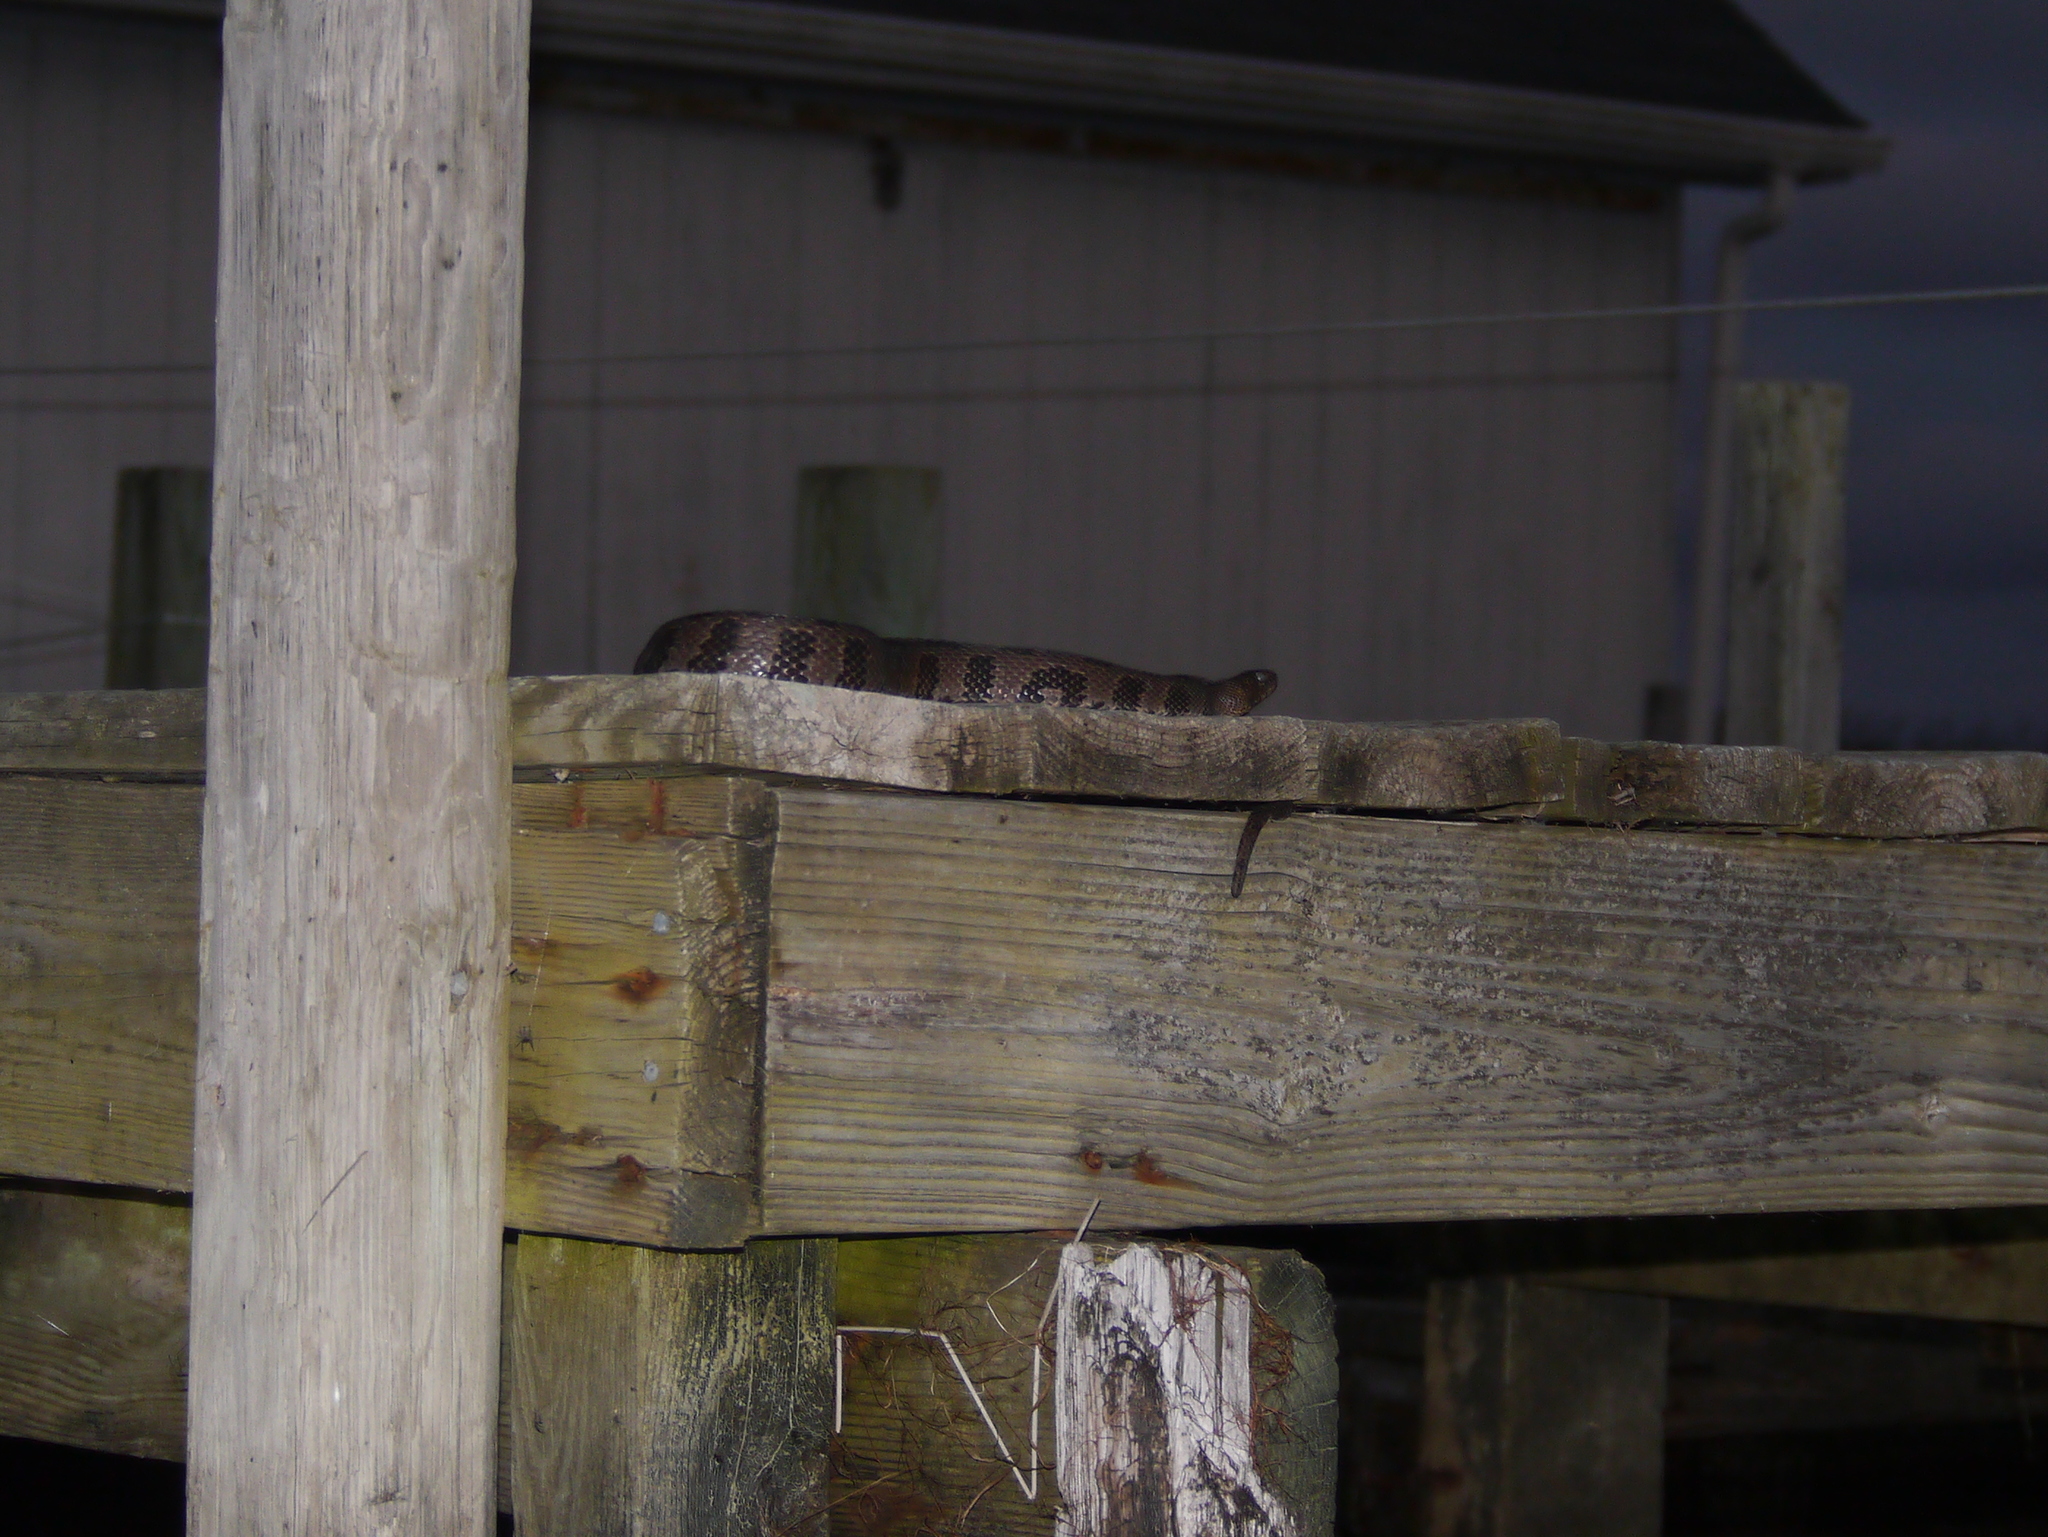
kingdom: Animalia
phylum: Chordata
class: Squamata
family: Colubridae
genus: Nerodia
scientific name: Nerodia taxispilota
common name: Brown water snake
